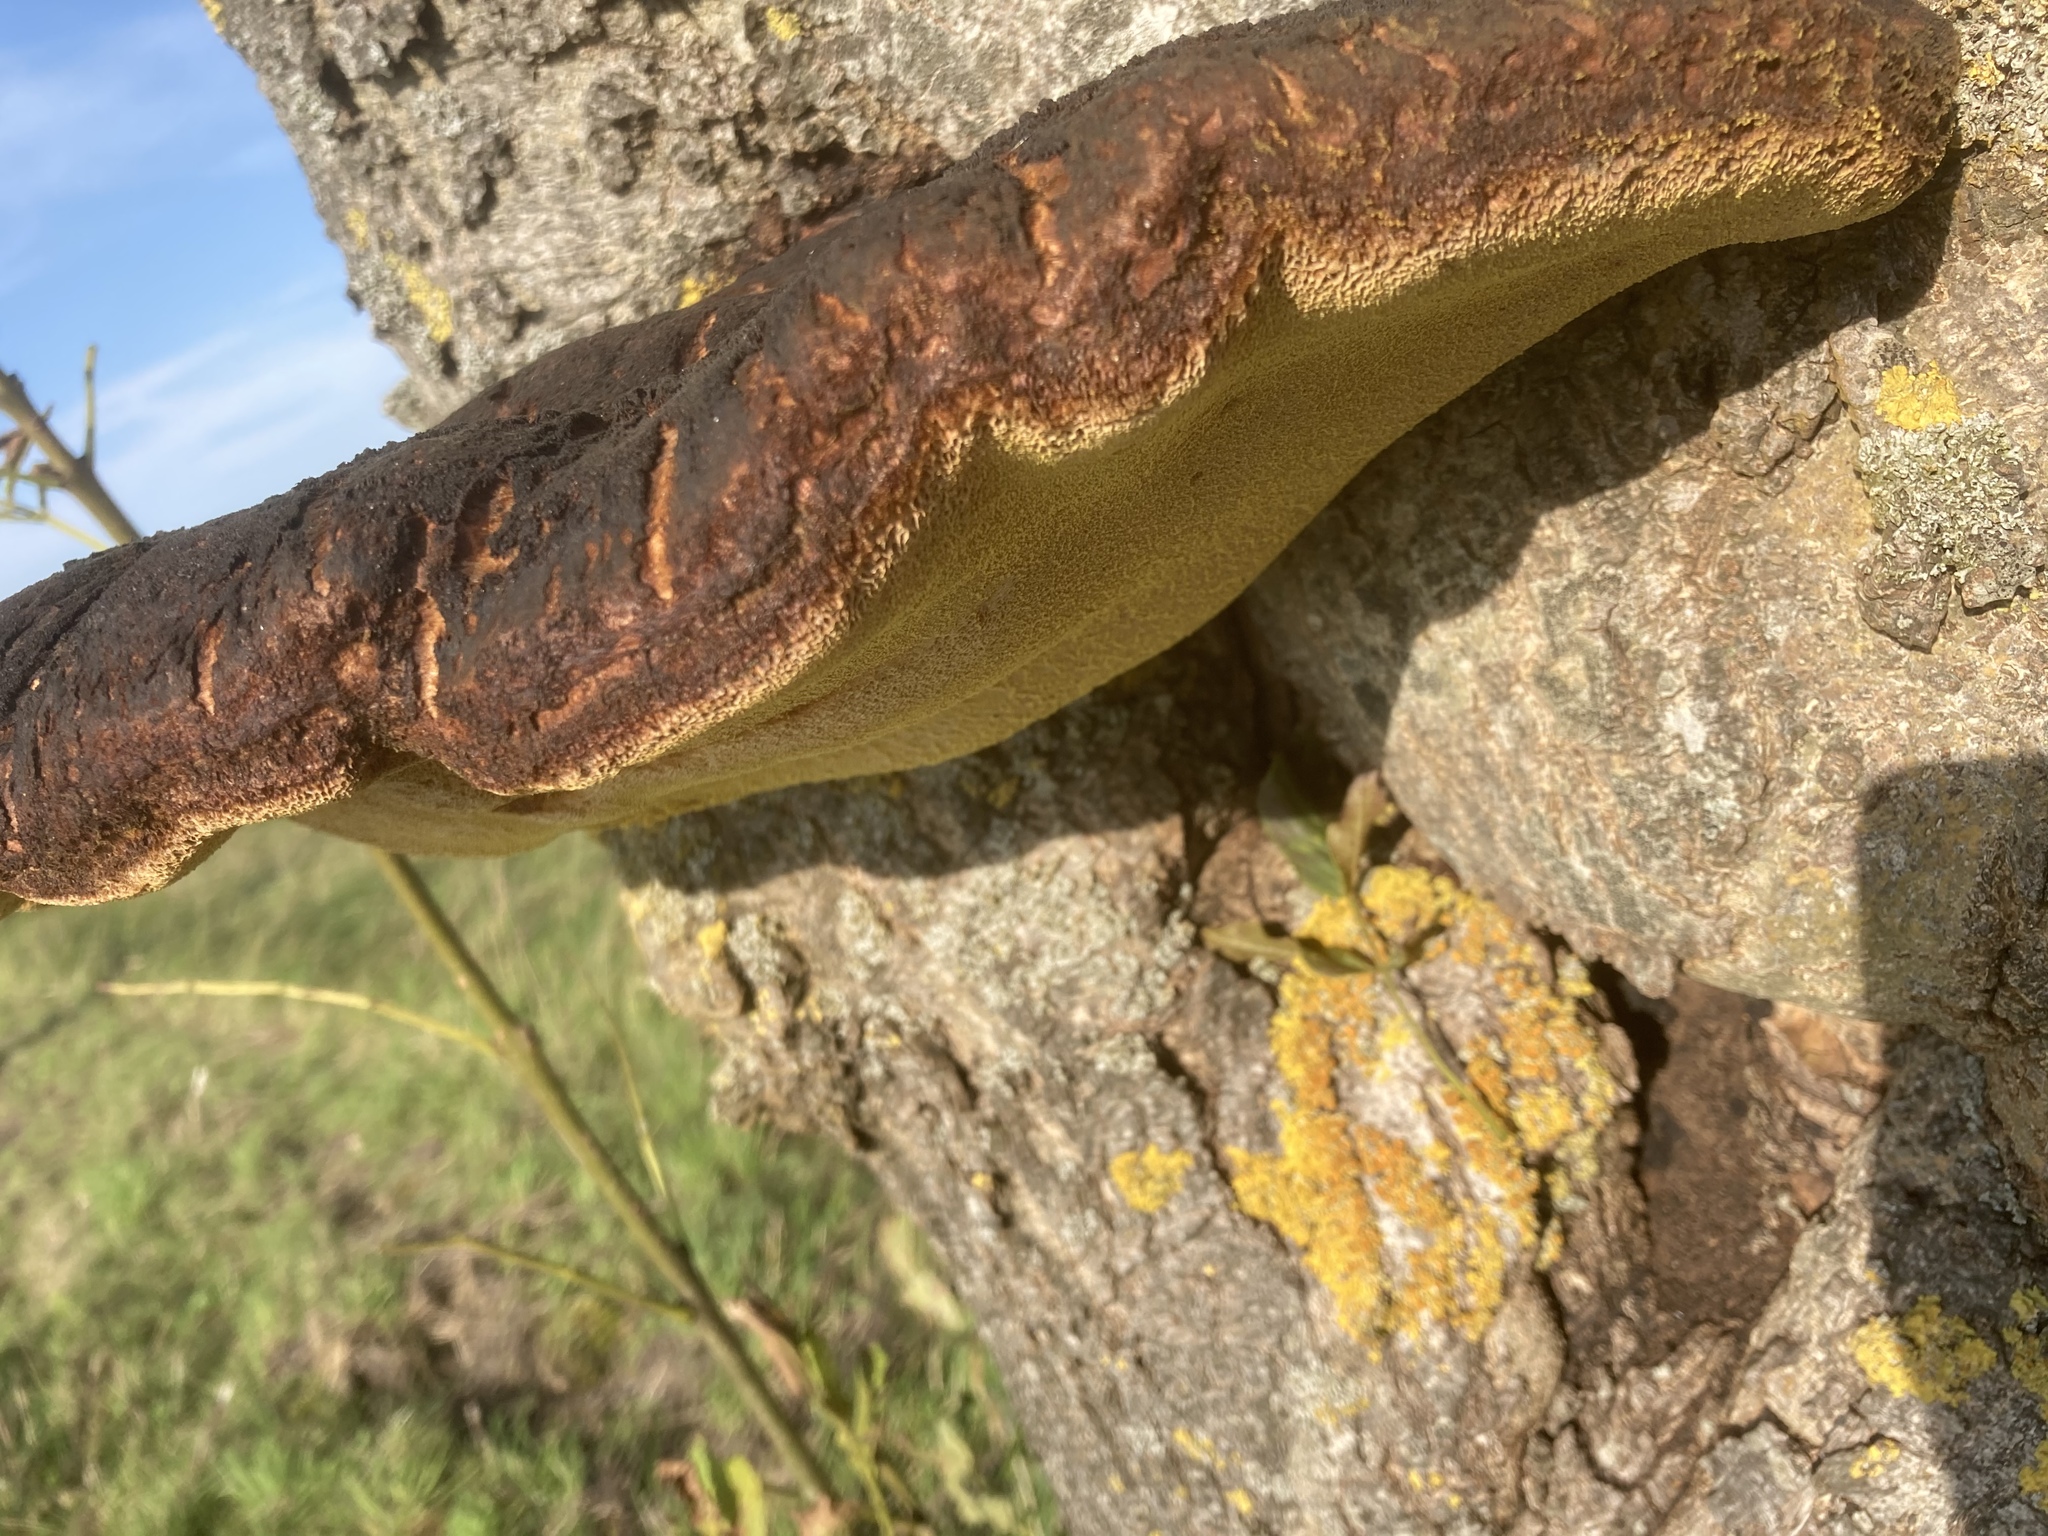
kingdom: Fungi
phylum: Basidiomycota
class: Agaricomycetes
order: Hymenochaetales
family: Hymenochaetaceae
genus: Inonotus
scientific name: Inonotus hispidus
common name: Shaggy bracket
